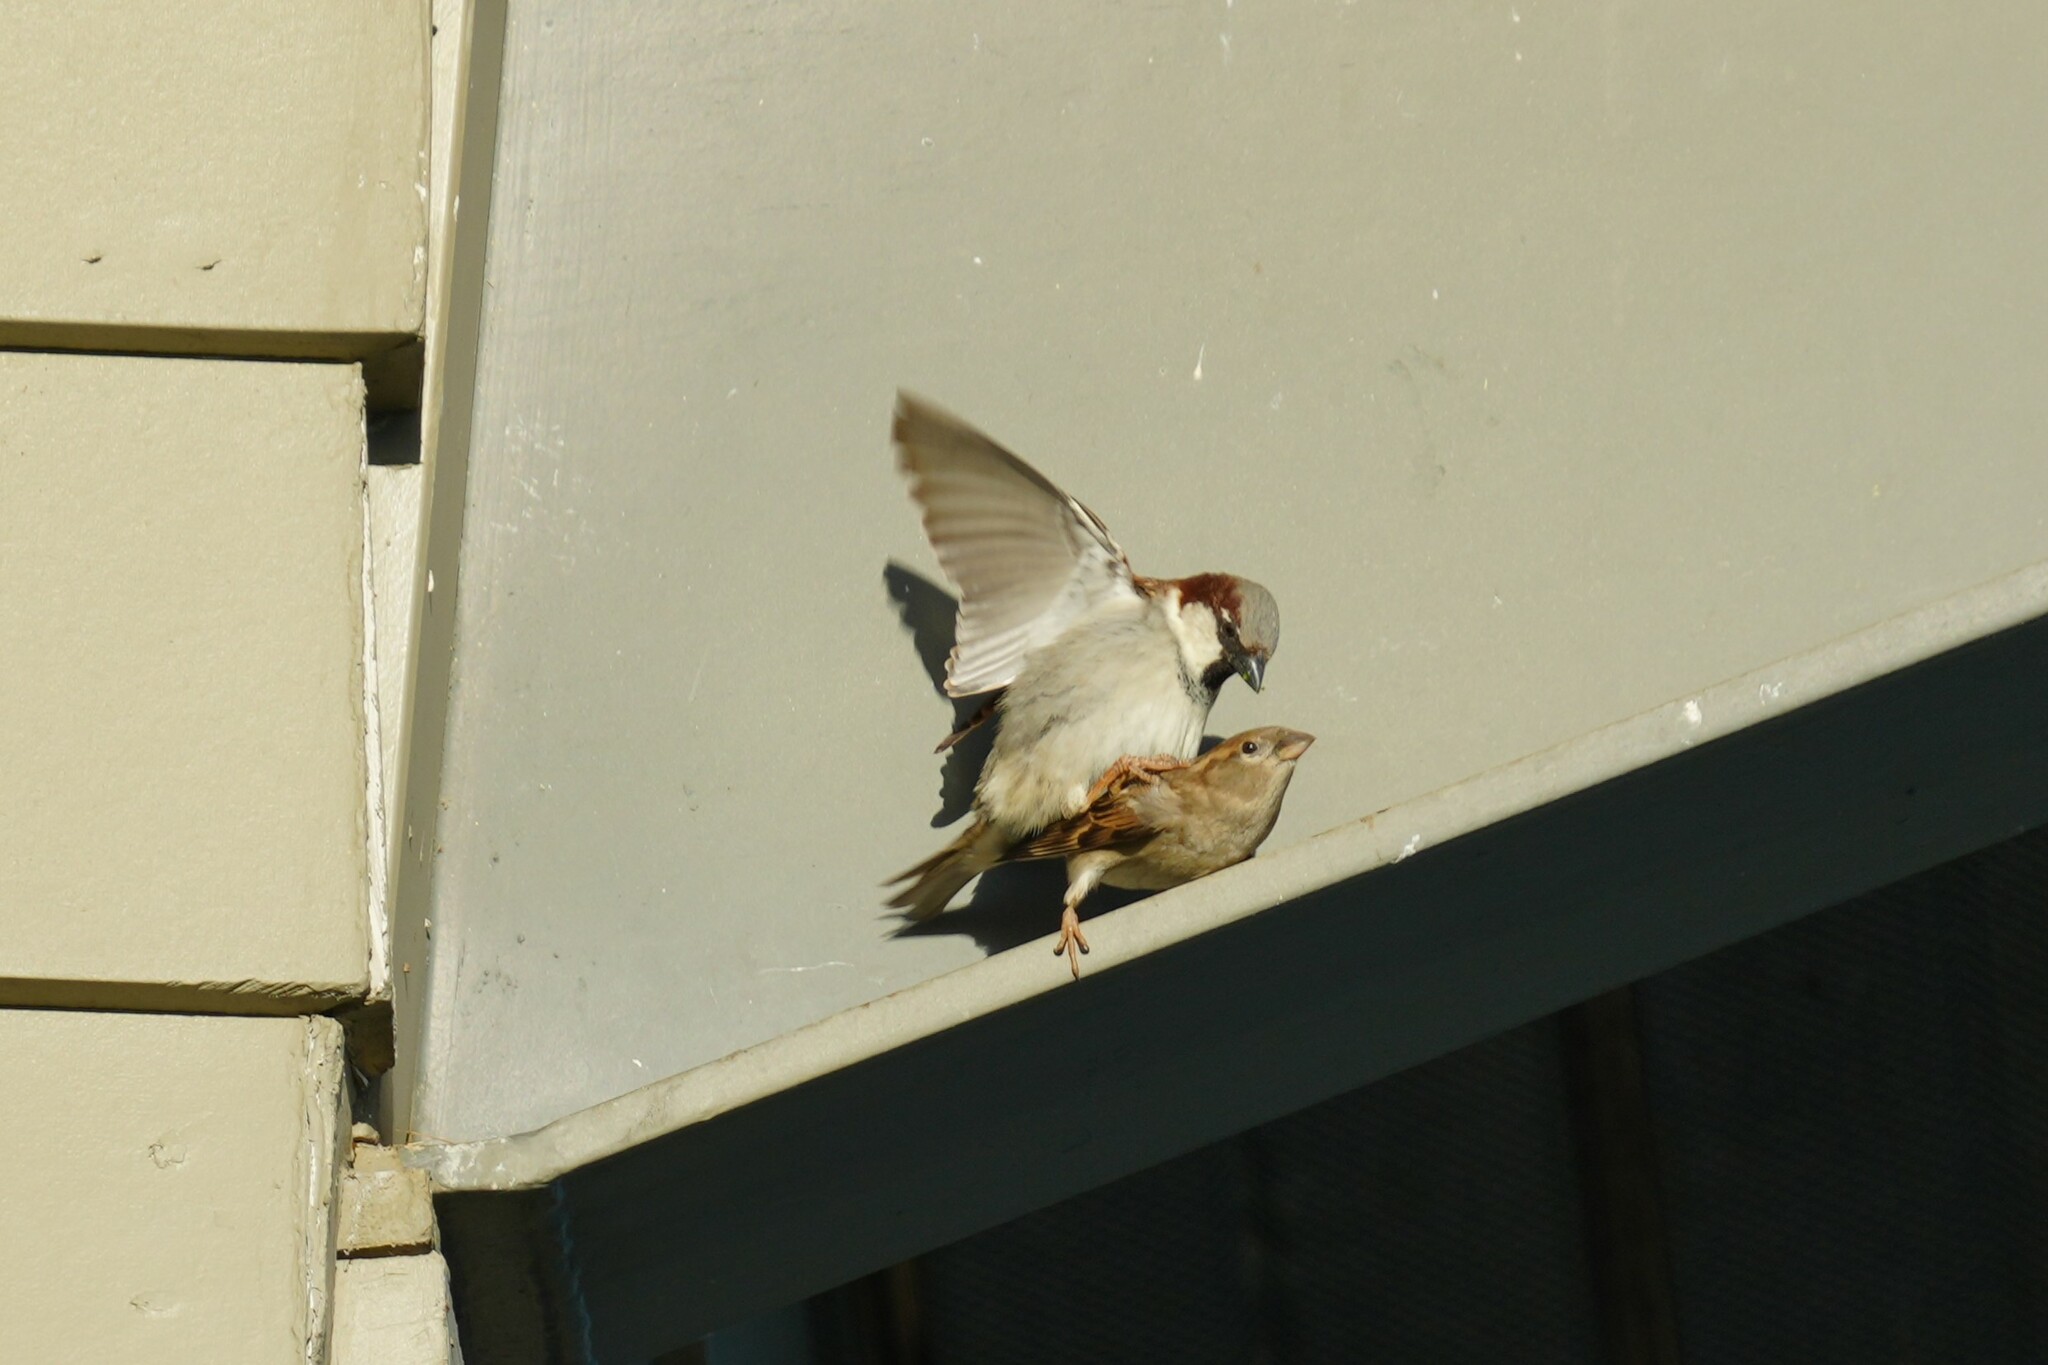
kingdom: Animalia
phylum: Chordata
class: Aves
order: Passeriformes
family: Passeridae
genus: Passer
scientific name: Passer domesticus
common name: House sparrow
